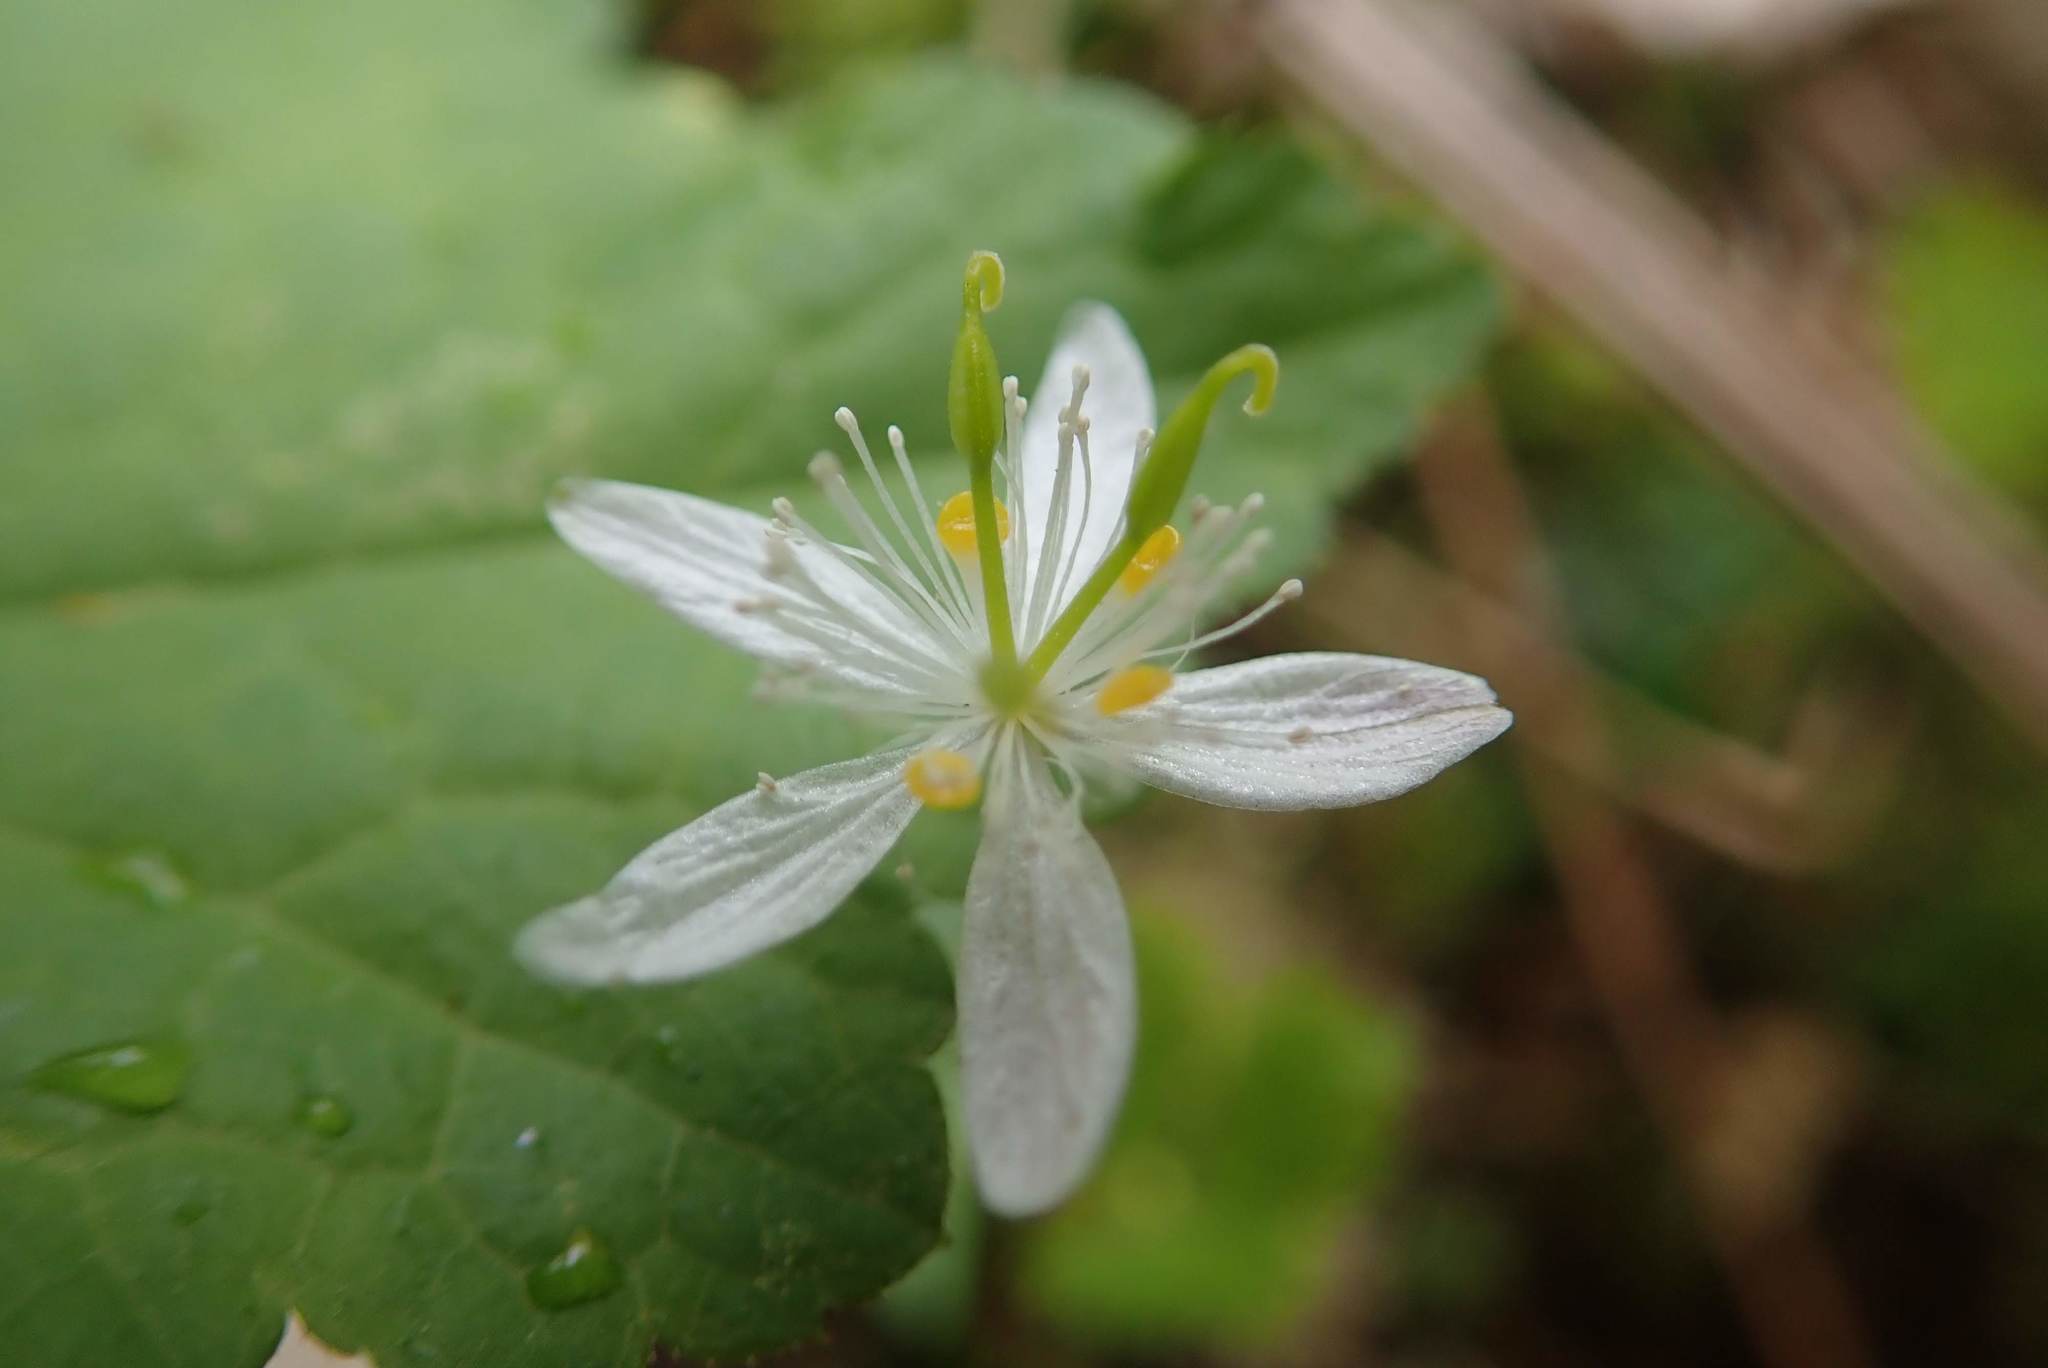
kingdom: Plantae
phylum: Tracheophyta
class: Magnoliopsida
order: Ranunculales
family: Ranunculaceae
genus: Coptis
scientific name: Coptis trifolia
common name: Canker-root
